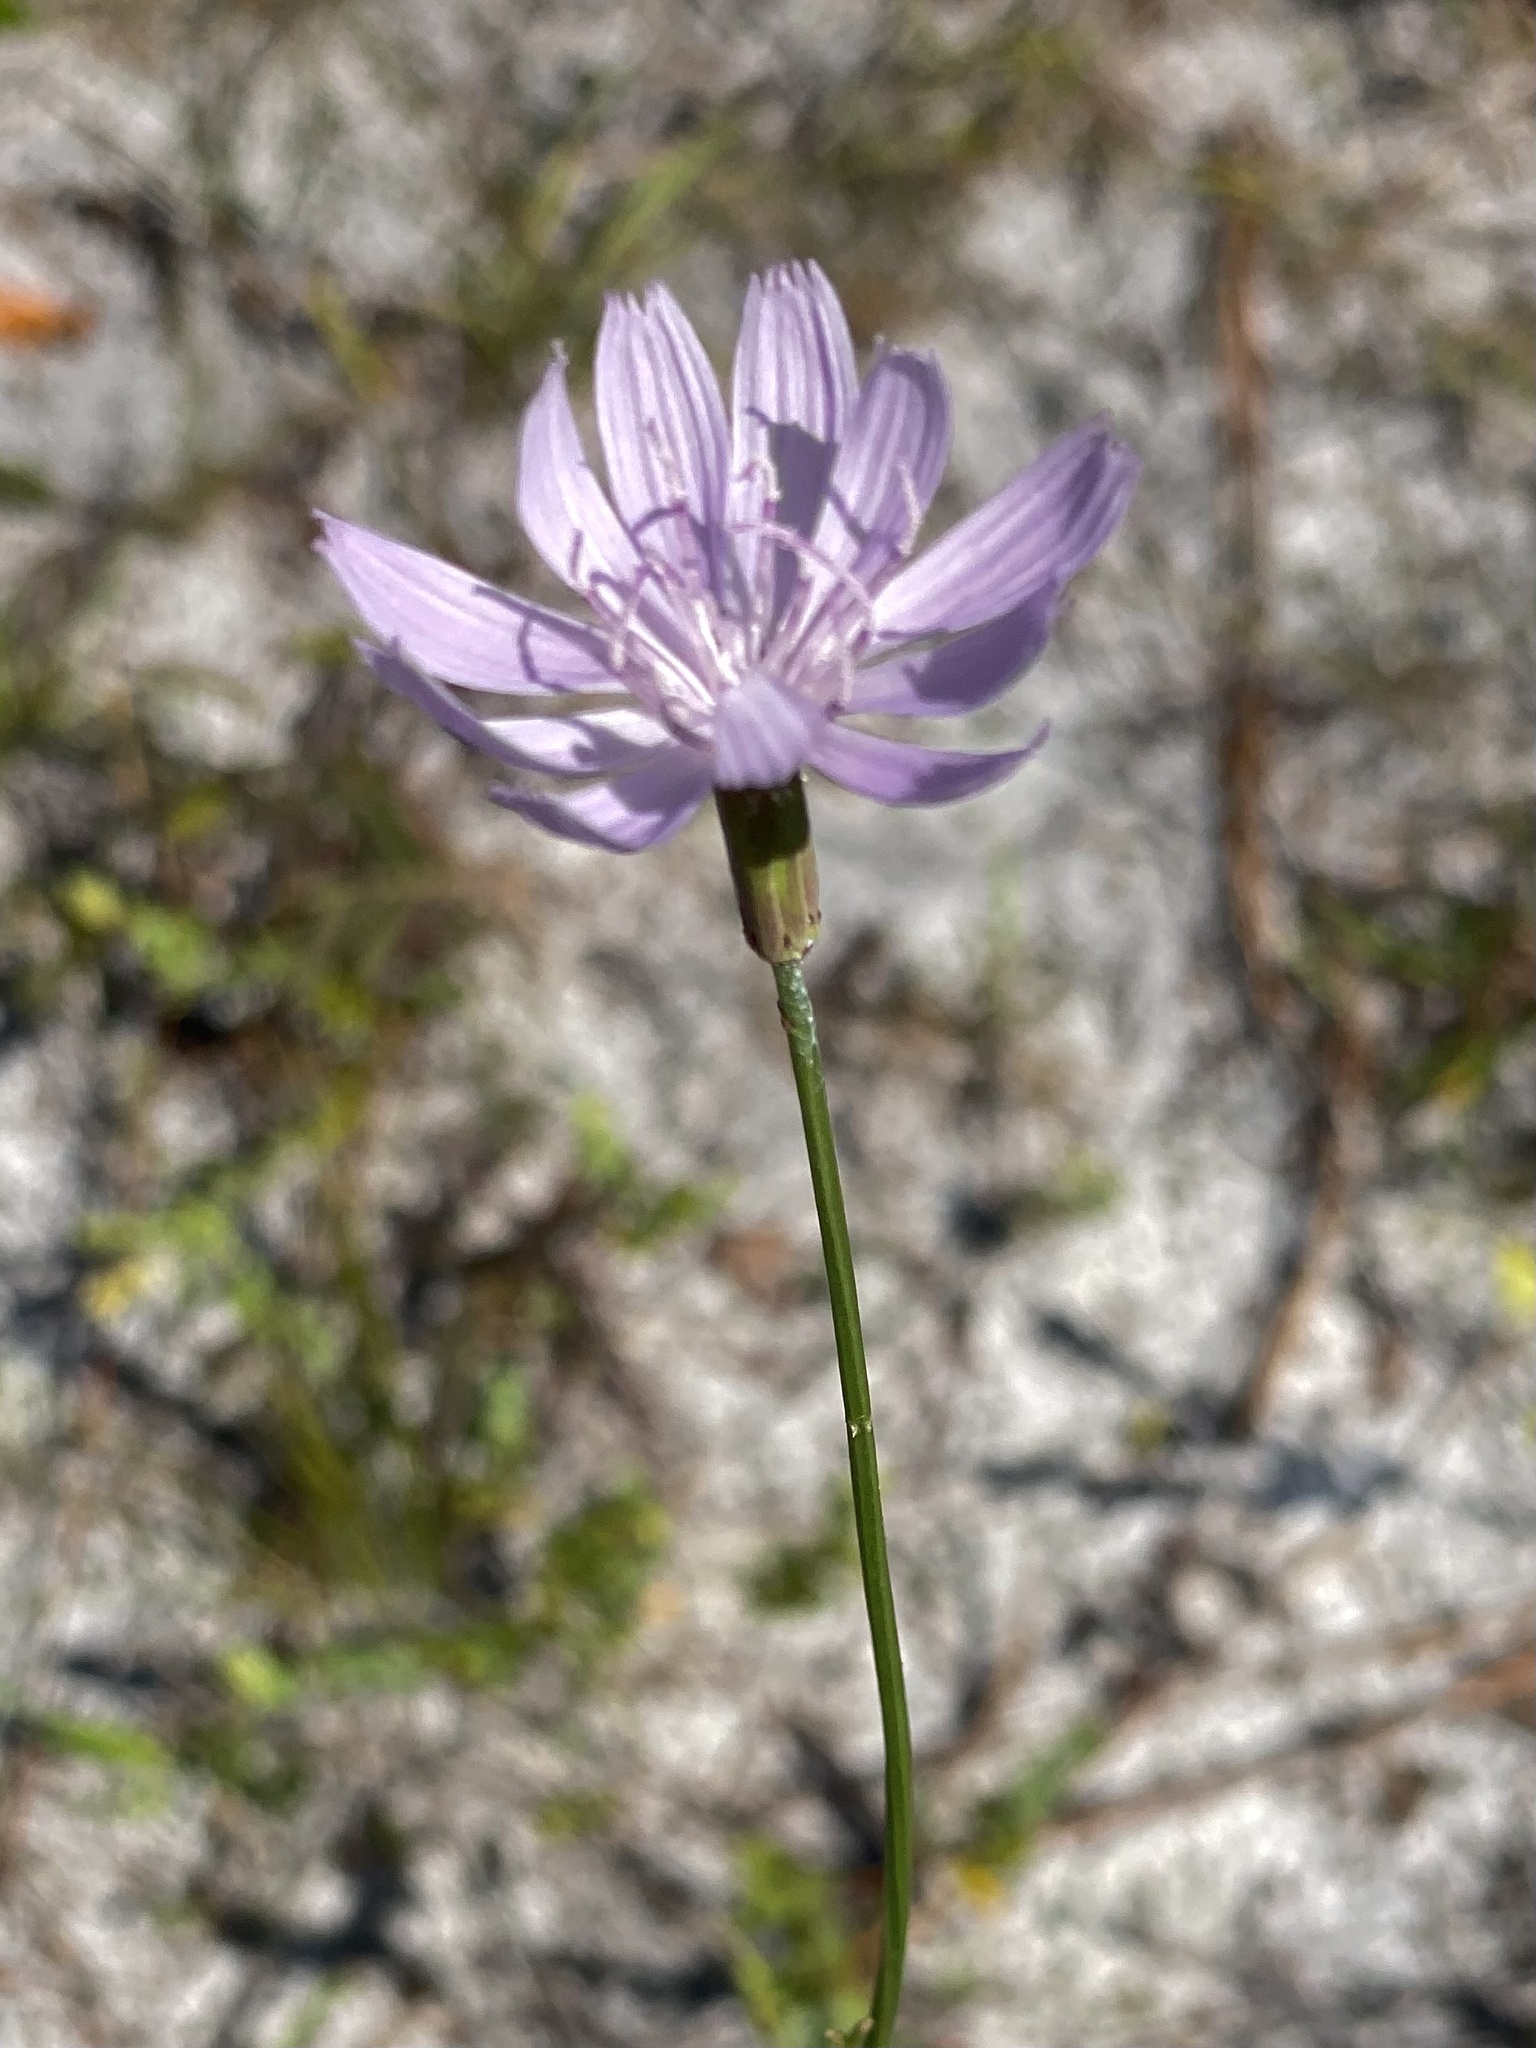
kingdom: Plantae
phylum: Tracheophyta
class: Magnoliopsida
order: Asterales
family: Asteraceae
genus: Lygodesmia
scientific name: Lygodesmia aphylla
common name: Rose-rush
